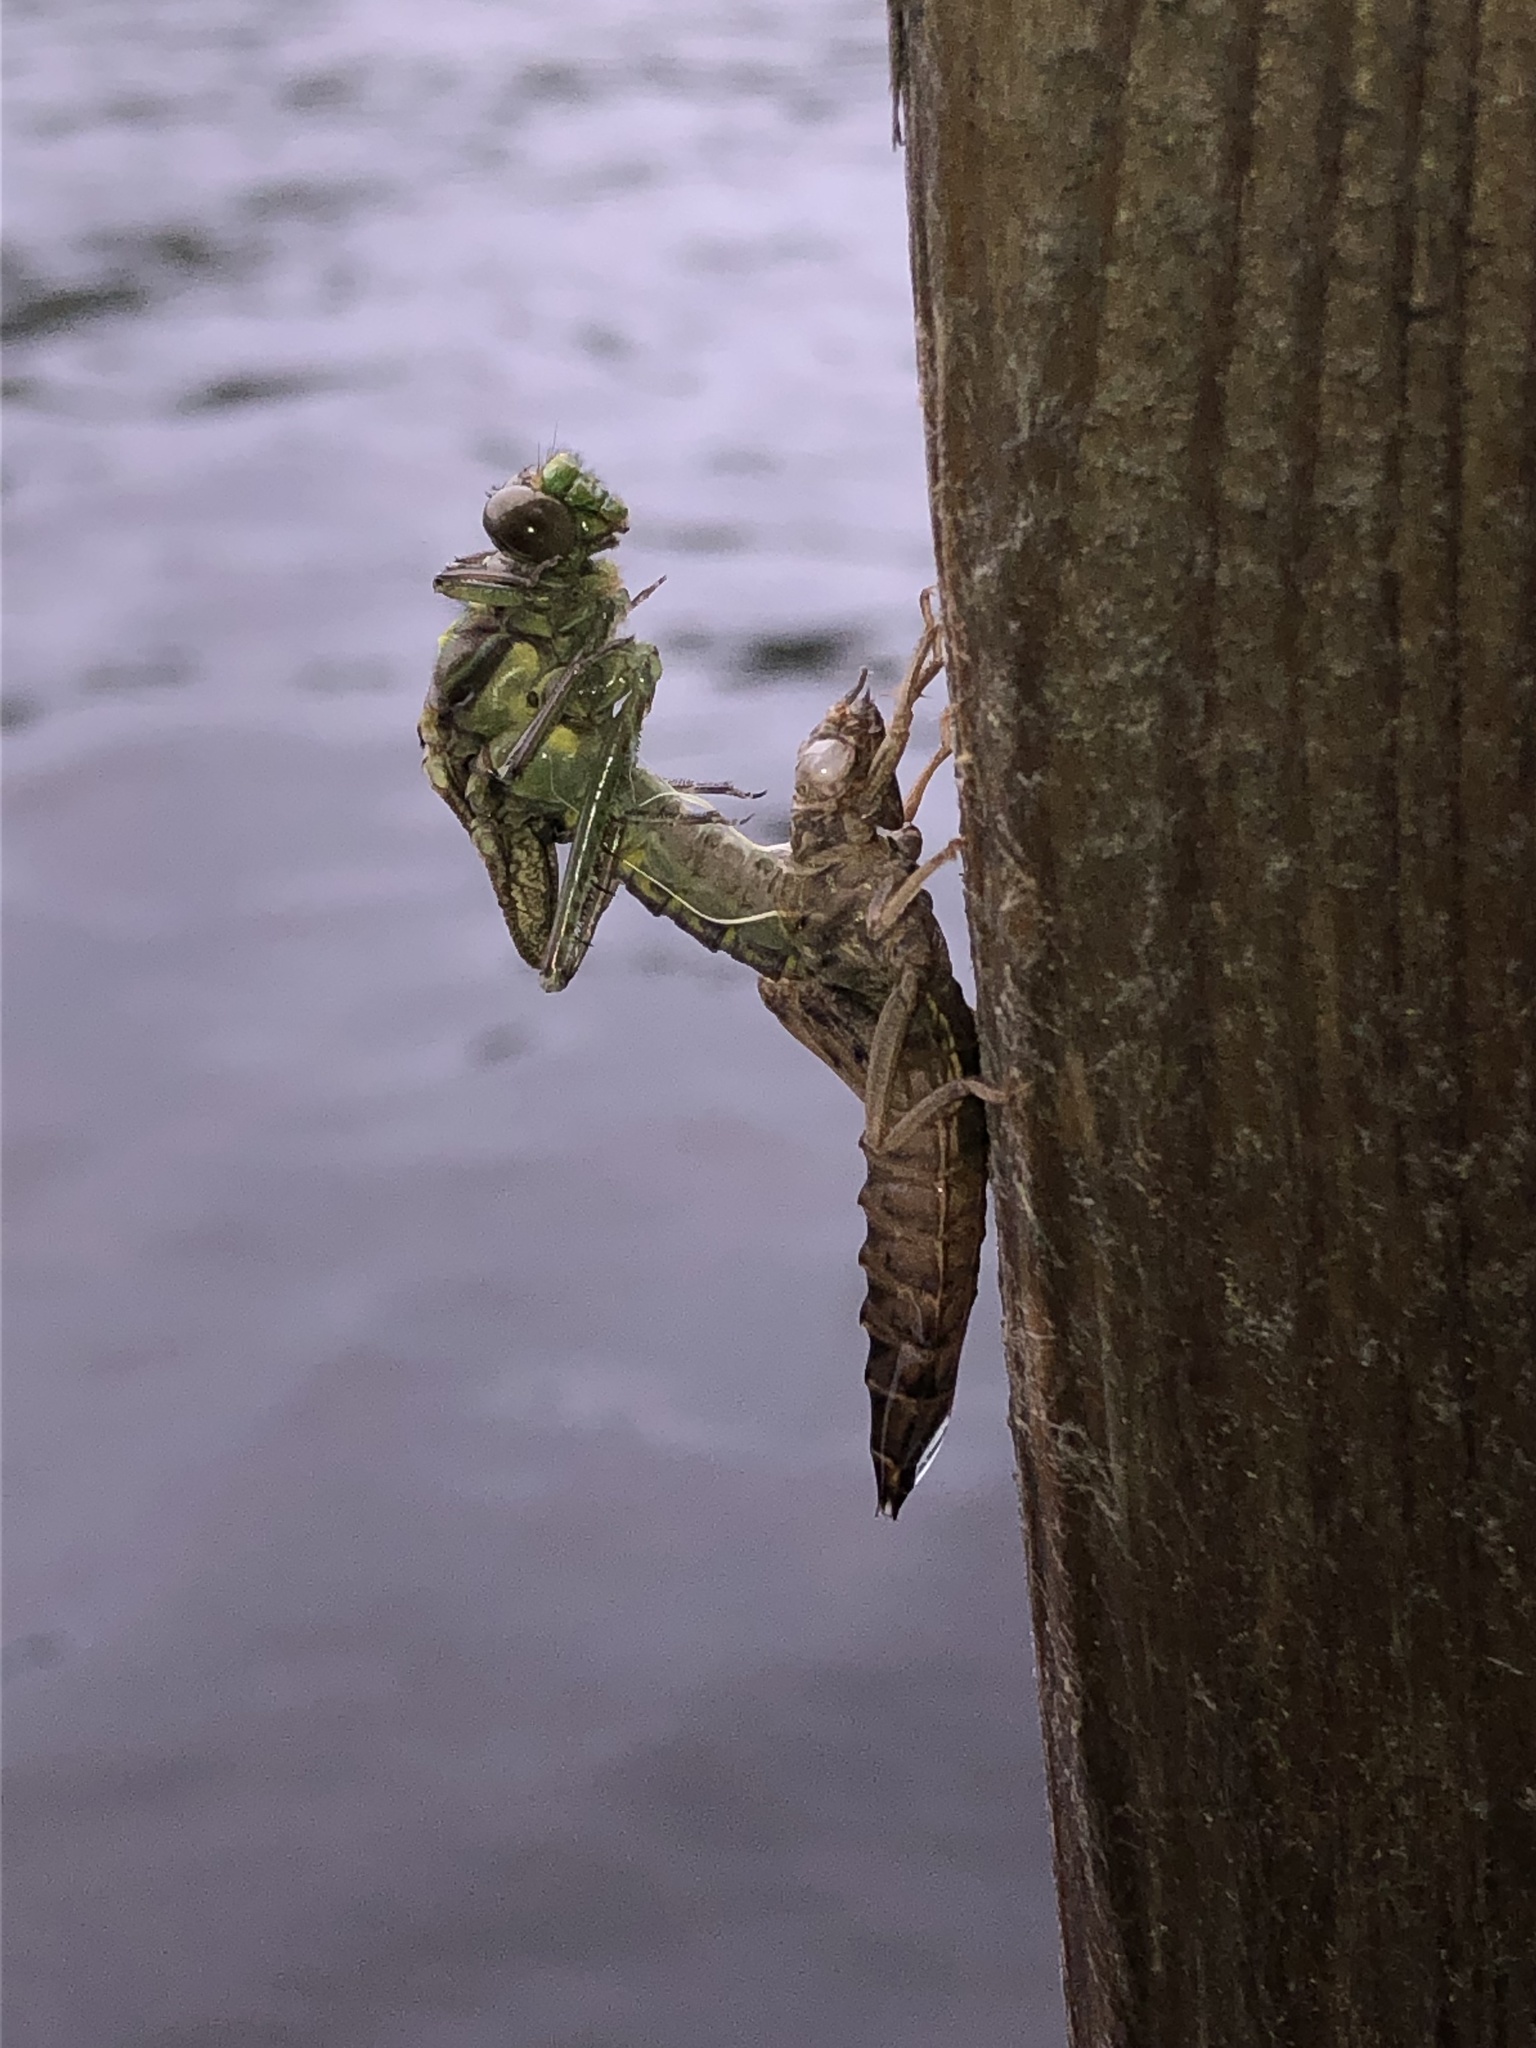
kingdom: Animalia
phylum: Arthropoda
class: Insecta
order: Odonata
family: Gomphidae
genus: Dromogomphus
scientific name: Dromogomphus spinosus
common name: Black-shouldered spinyleg
